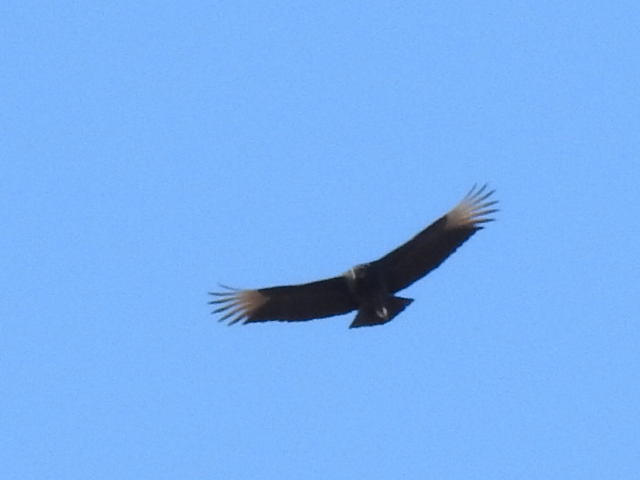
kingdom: Animalia
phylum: Chordata
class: Aves
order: Accipitriformes
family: Cathartidae
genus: Coragyps
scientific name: Coragyps atratus
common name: Black vulture
